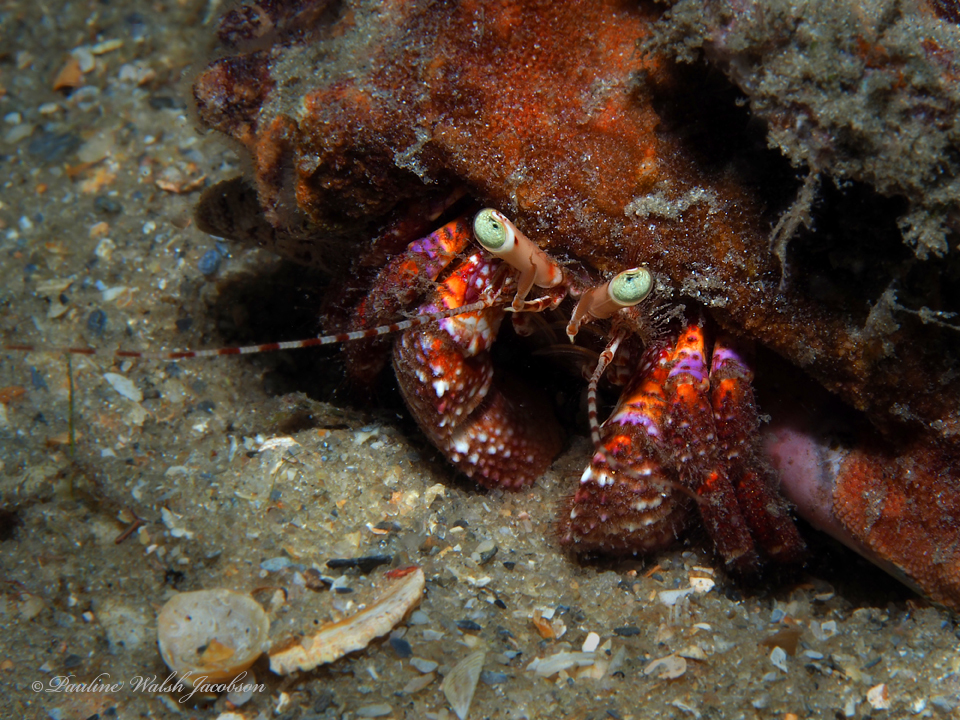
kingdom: Animalia
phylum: Arthropoda
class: Malacostraca
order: Decapoda
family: Diogenidae
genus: Petrochirus
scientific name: Petrochirus diogenes
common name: Giant hermit crab
